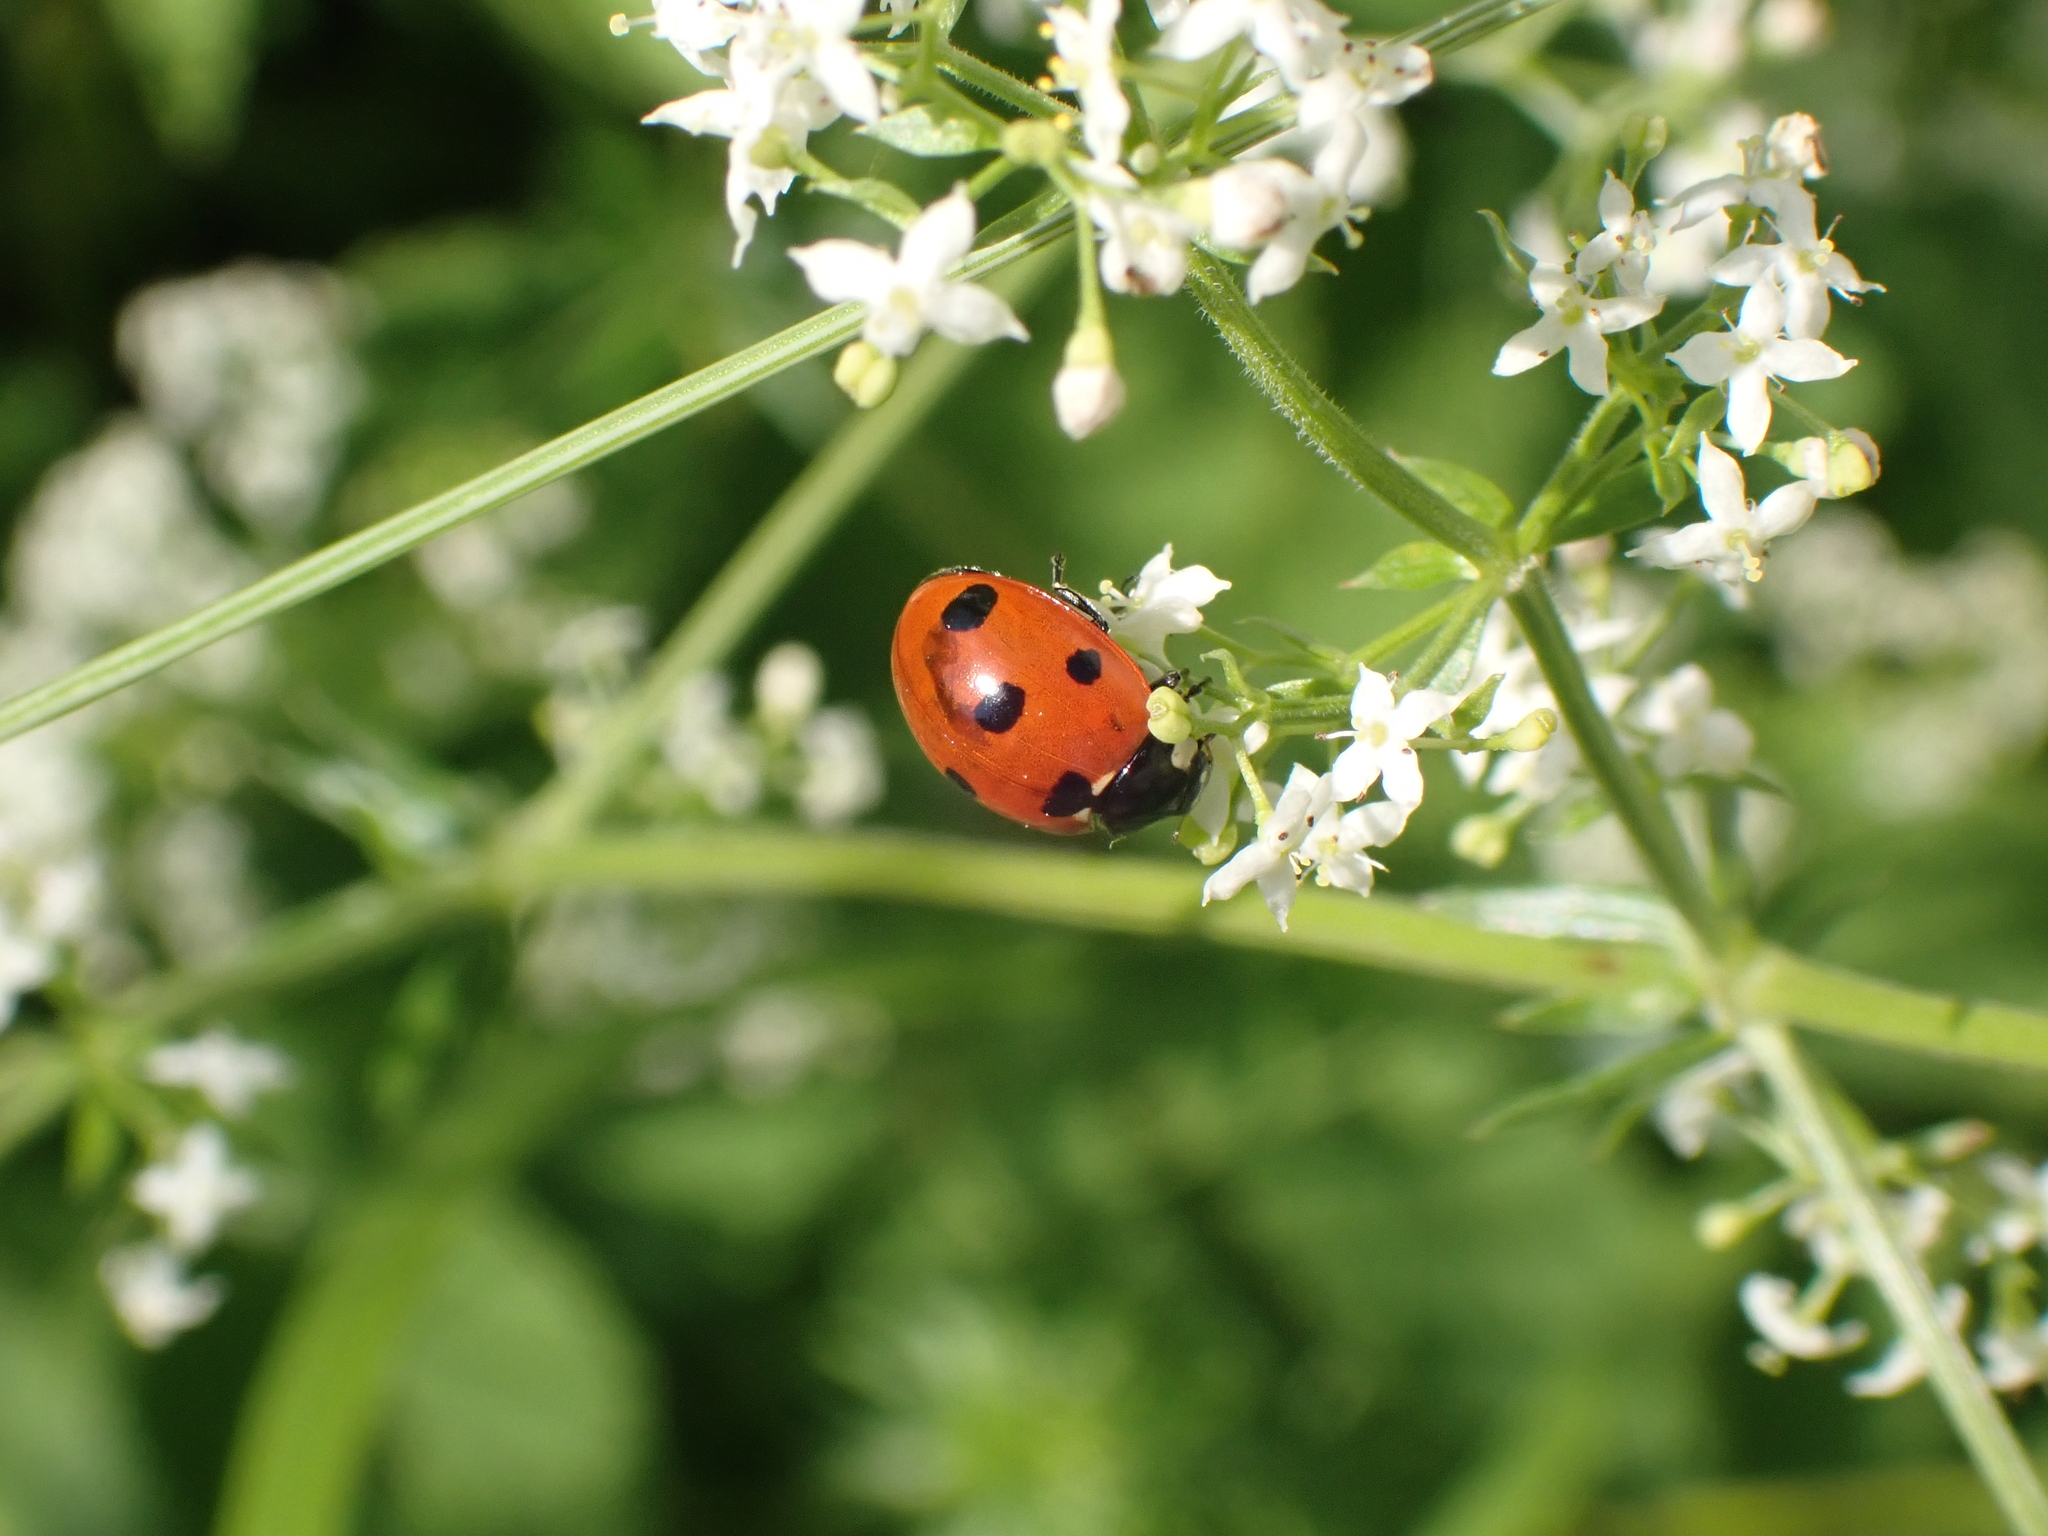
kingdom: Animalia
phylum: Arthropoda
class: Insecta
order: Coleoptera
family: Coccinellidae
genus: Coccinella
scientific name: Coccinella septempunctata
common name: Sevenspotted lady beetle
